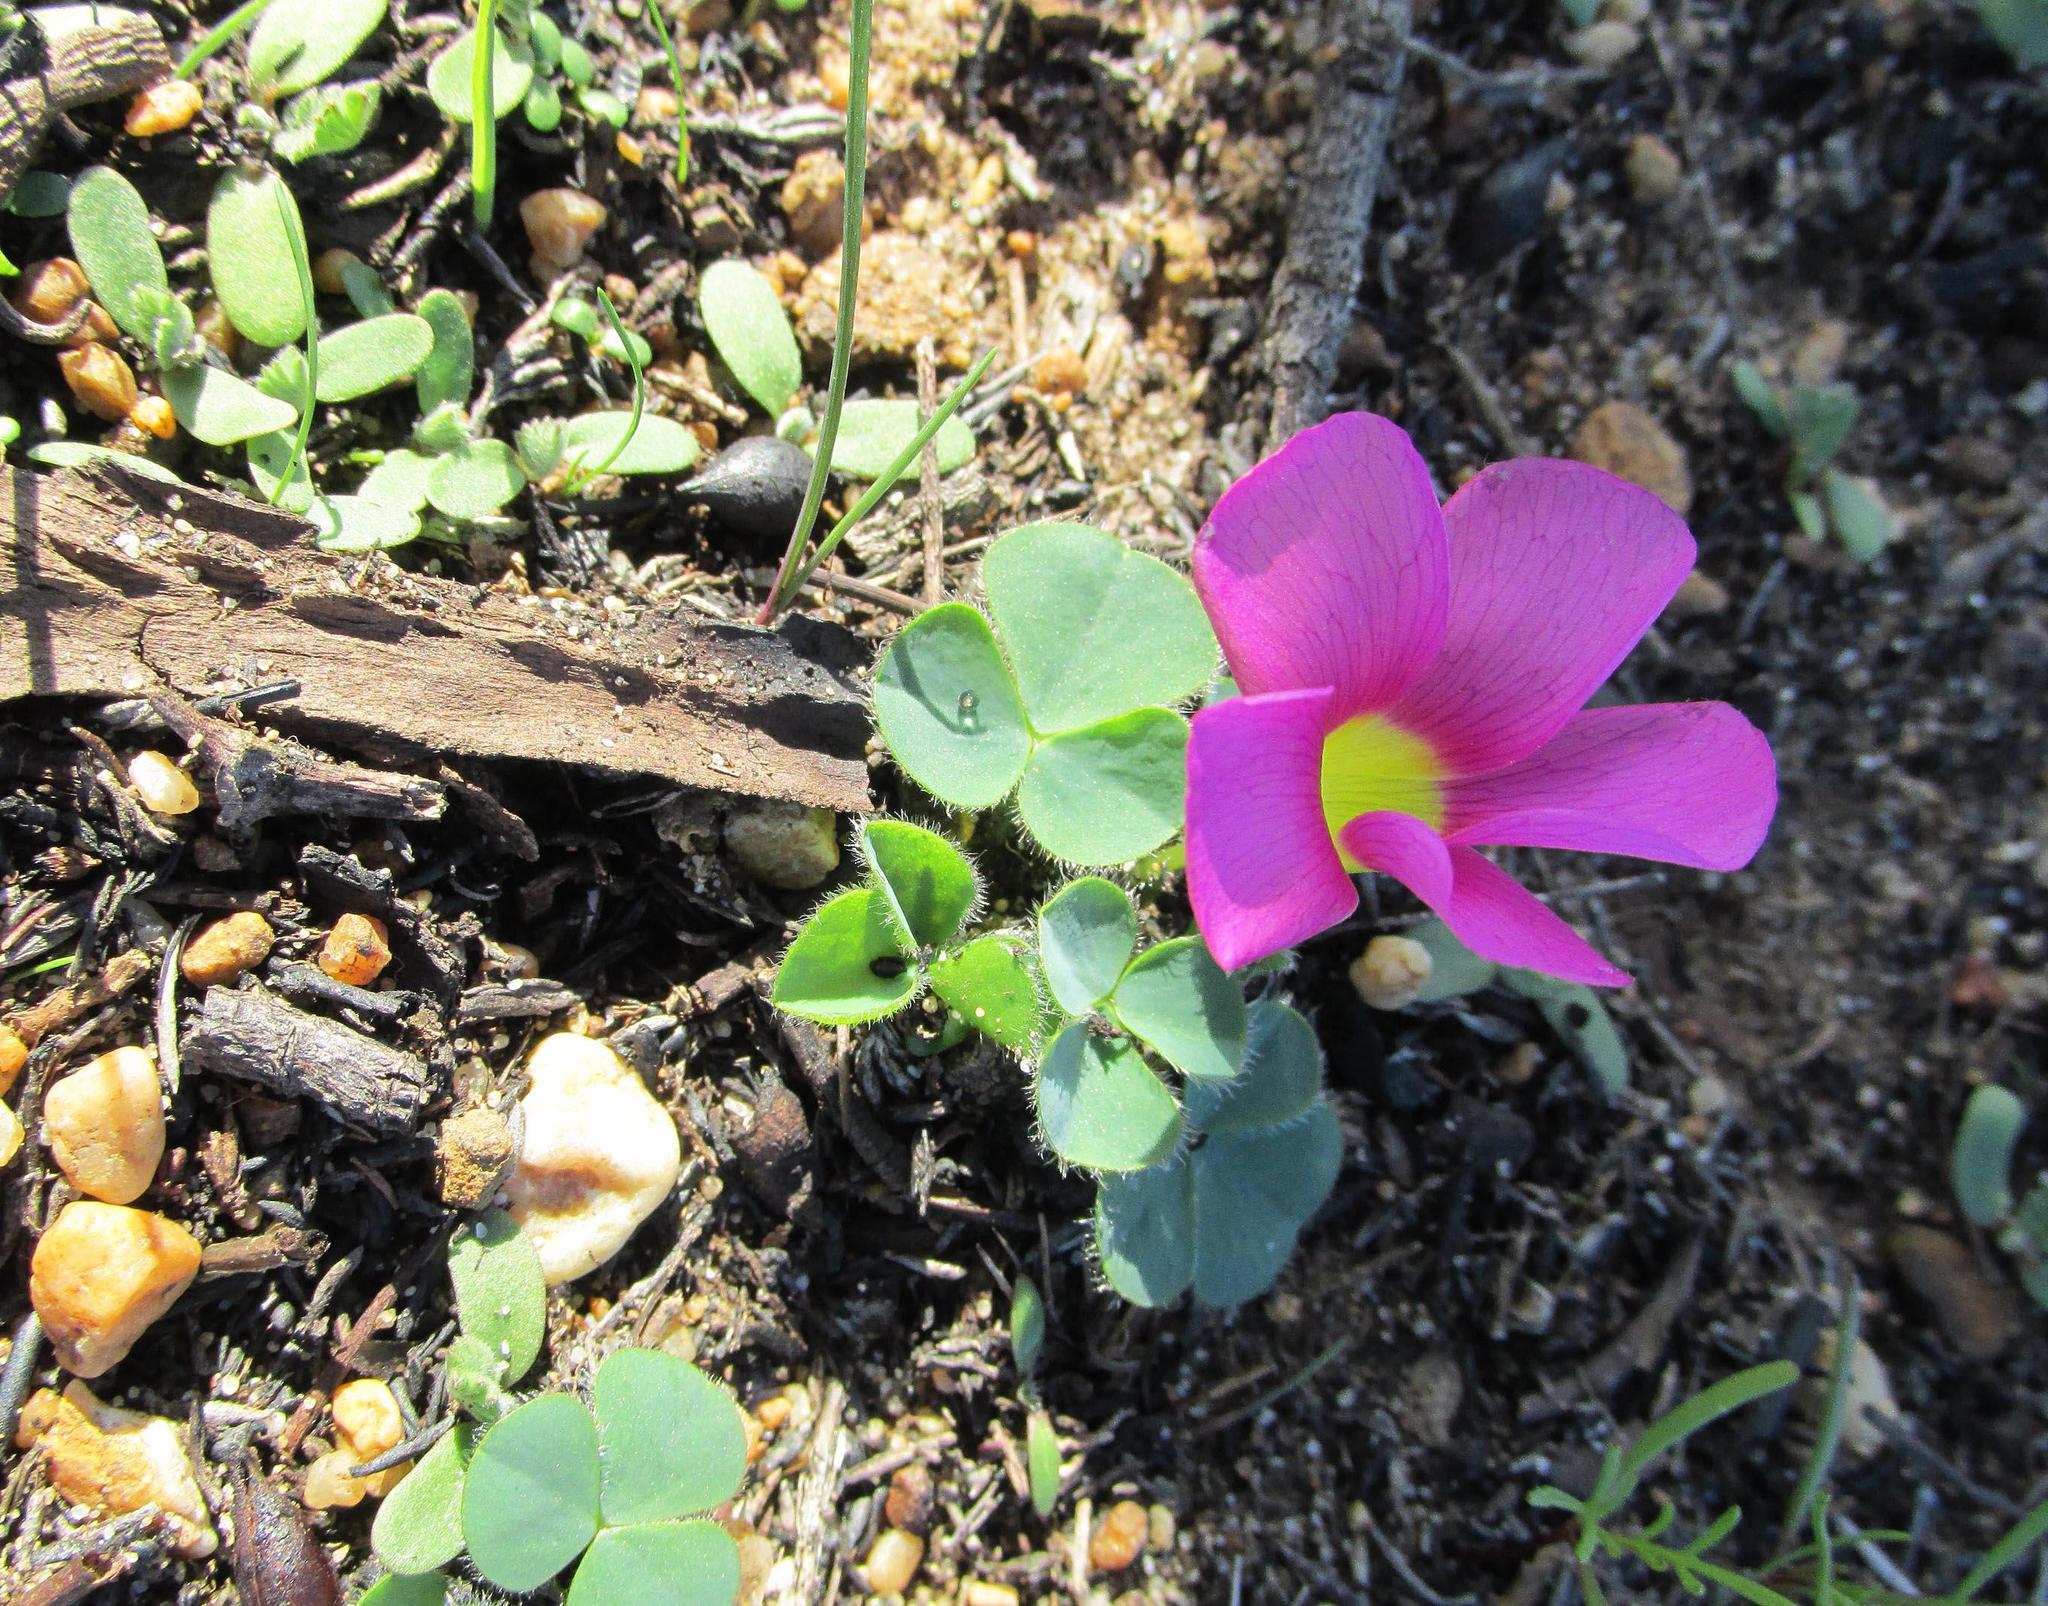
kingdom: Plantae
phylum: Tracheophyta
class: Magnoliopsida
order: Oxalidales
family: Oxalidaceae
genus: Oxalis
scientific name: Oxalis purpurea
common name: Purple woodsorrel
